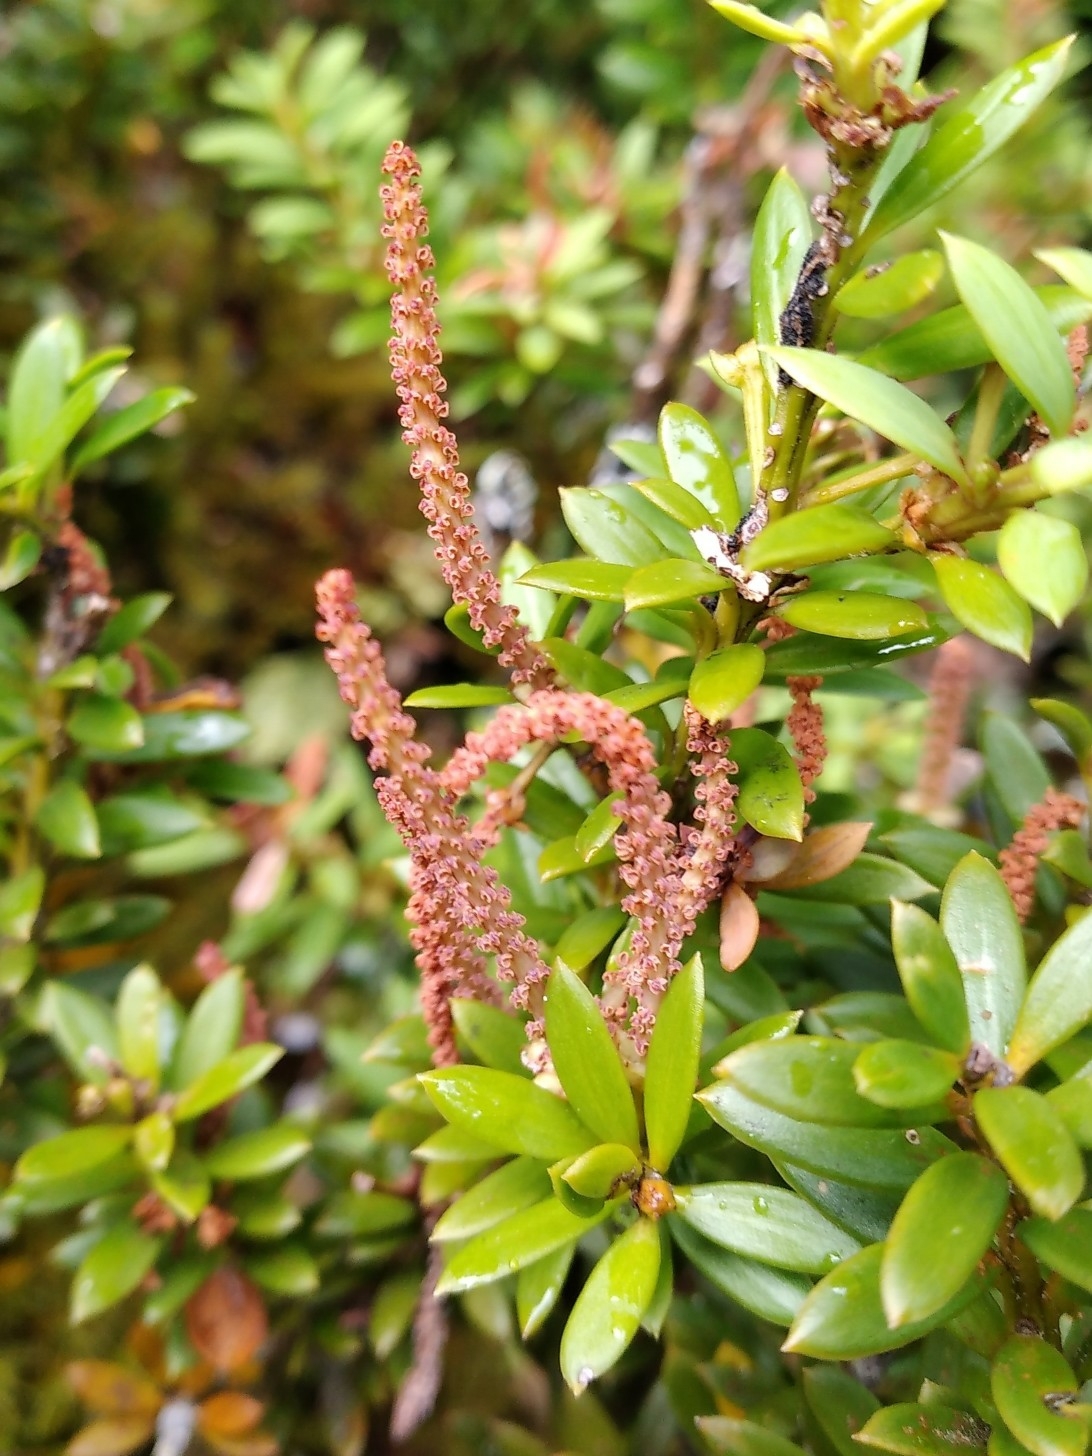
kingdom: Plantae
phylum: Tracheophyta
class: Pinopsida
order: Pinales
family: Podocarpaceae
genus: Podocarpus
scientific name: Podocarpus nivalis
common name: Alpine totara
